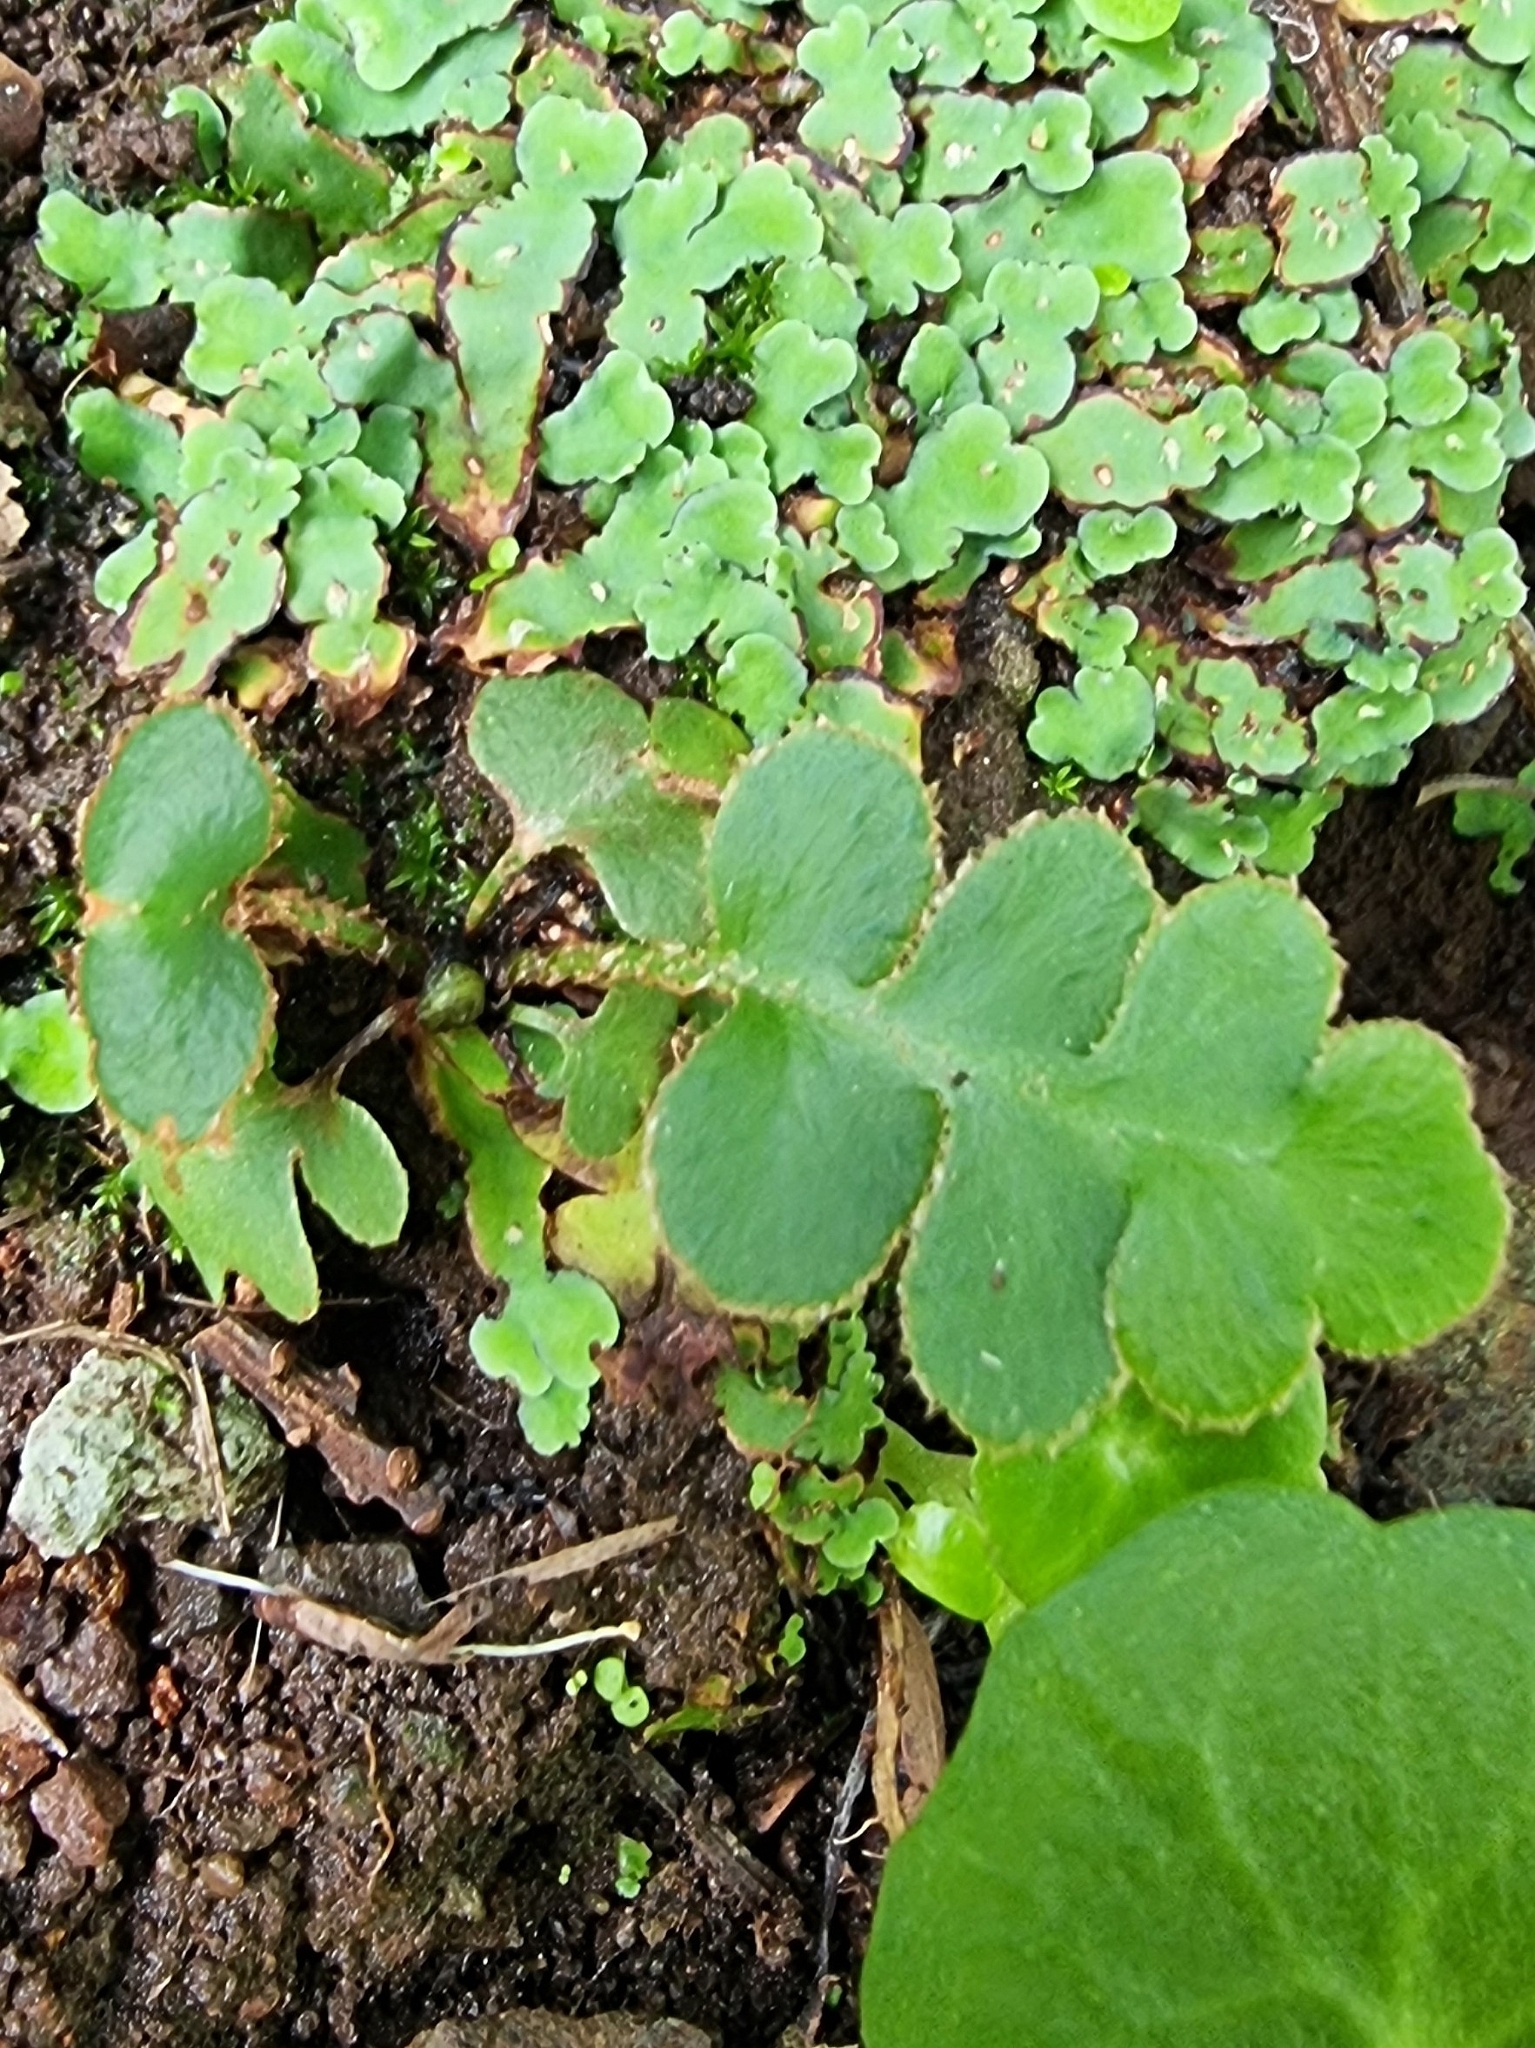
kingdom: Plantae
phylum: Tracheophyta
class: Polypodiopsida
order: Polypodiales
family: Aspleniaceae
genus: Asplenium
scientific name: Asplenium lolegnamense
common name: Madeira rustyback fern
